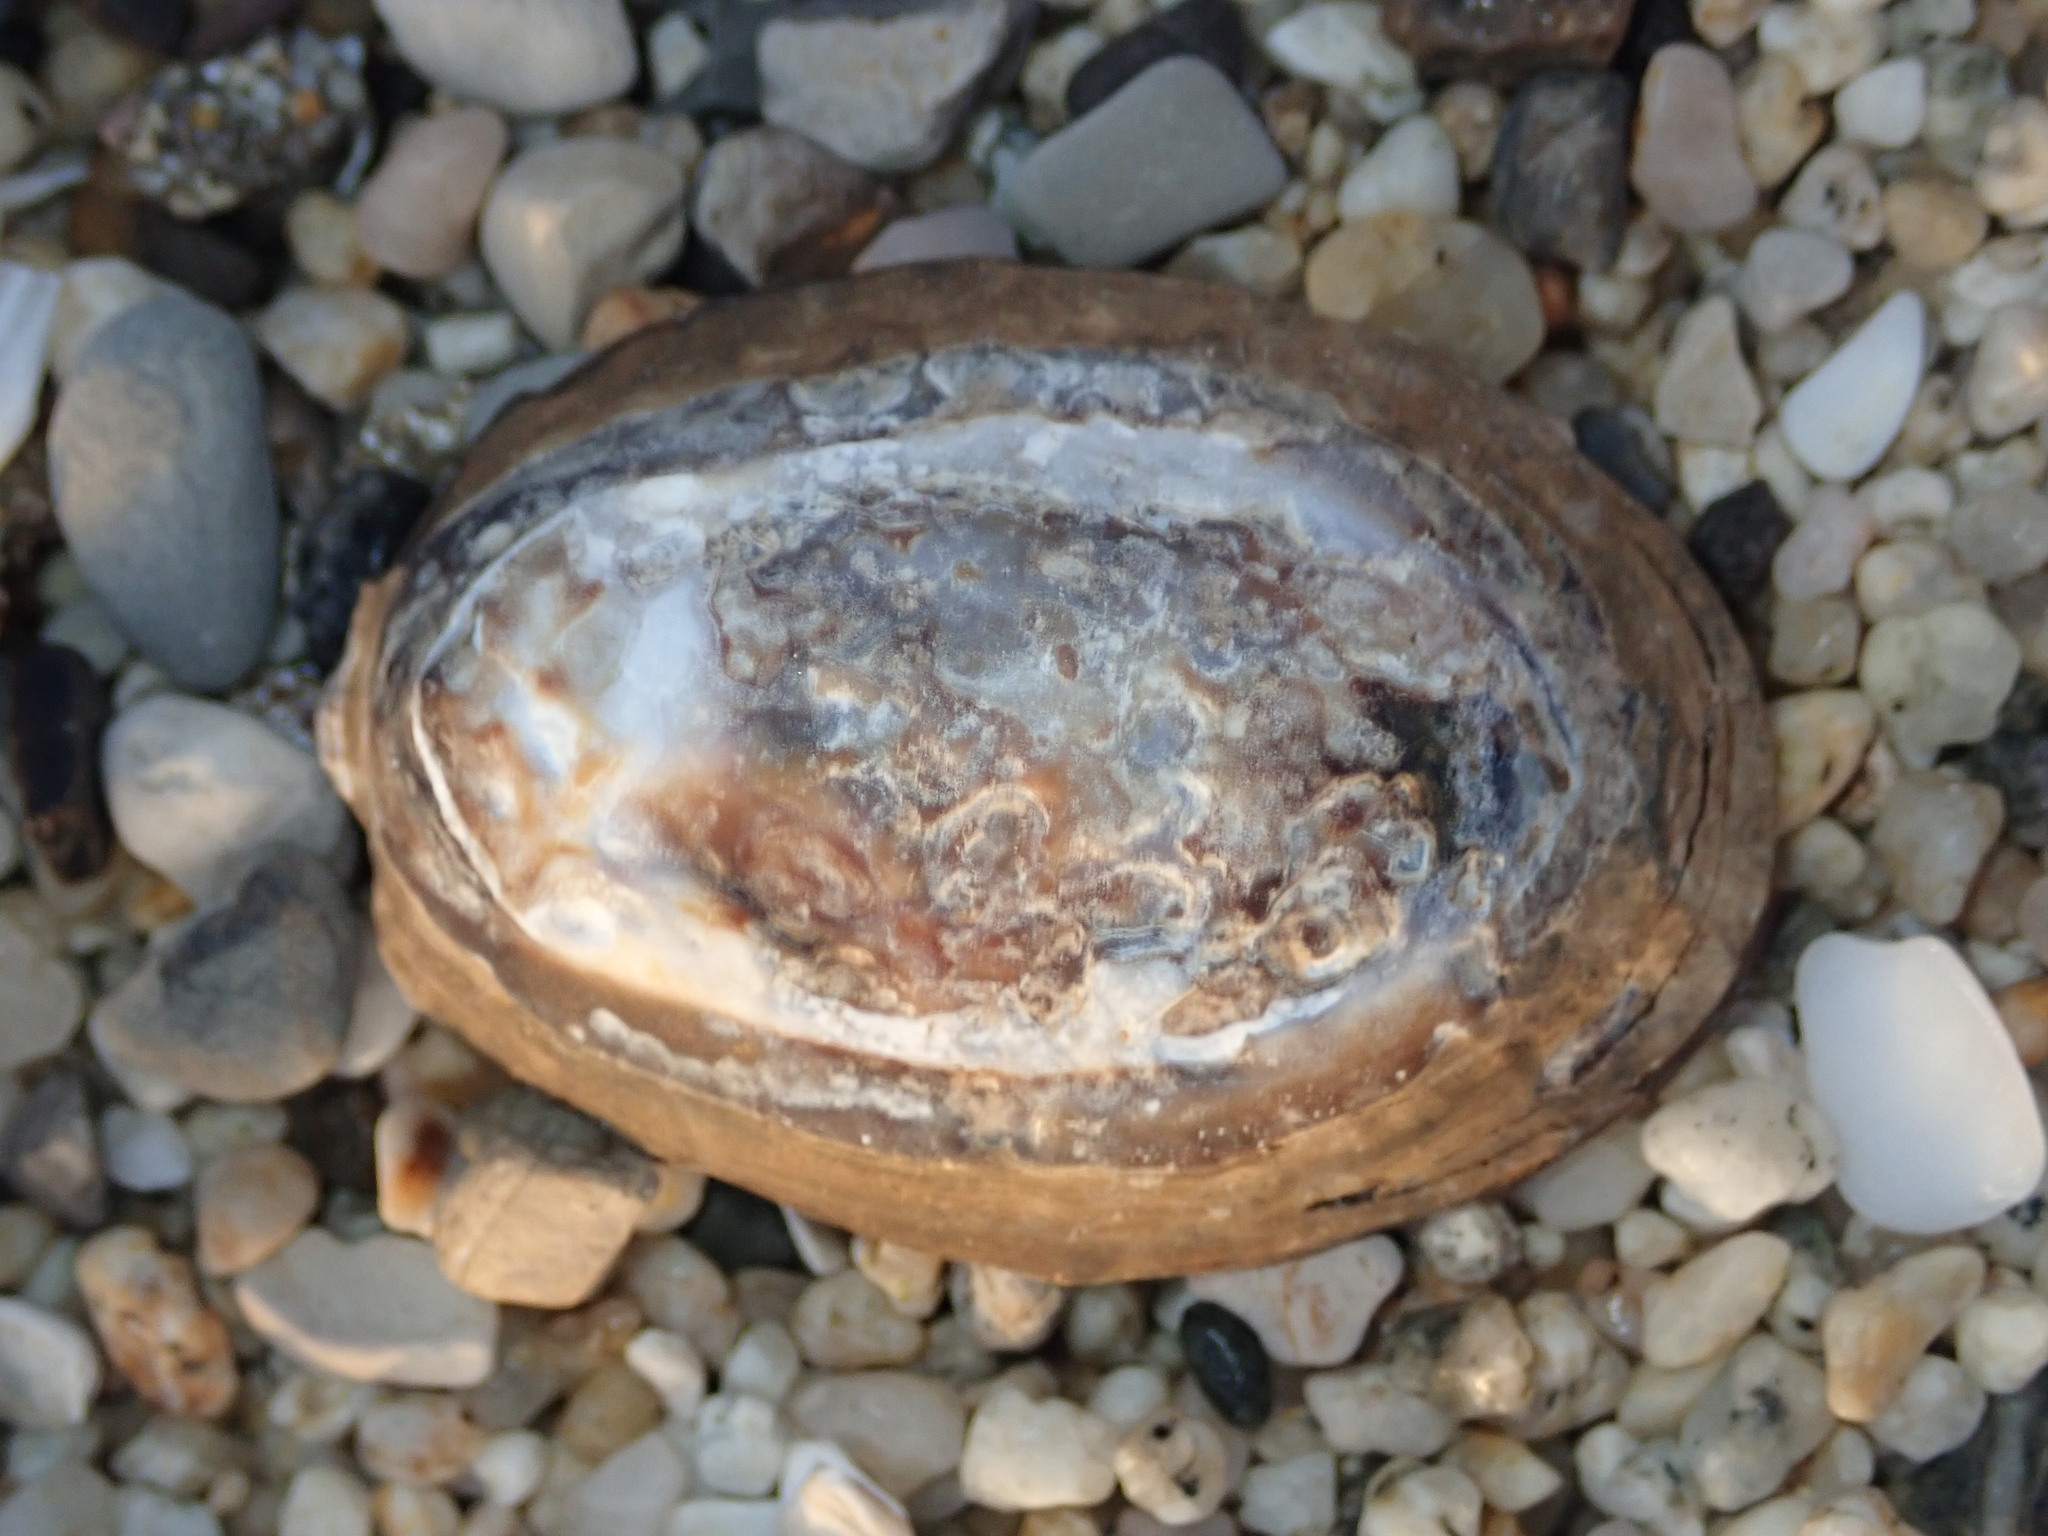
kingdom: Animalia
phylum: Mollusca
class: Gastropoda
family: Lottiidae
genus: Lottia
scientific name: Lottia gigantea
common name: Owl limpet
